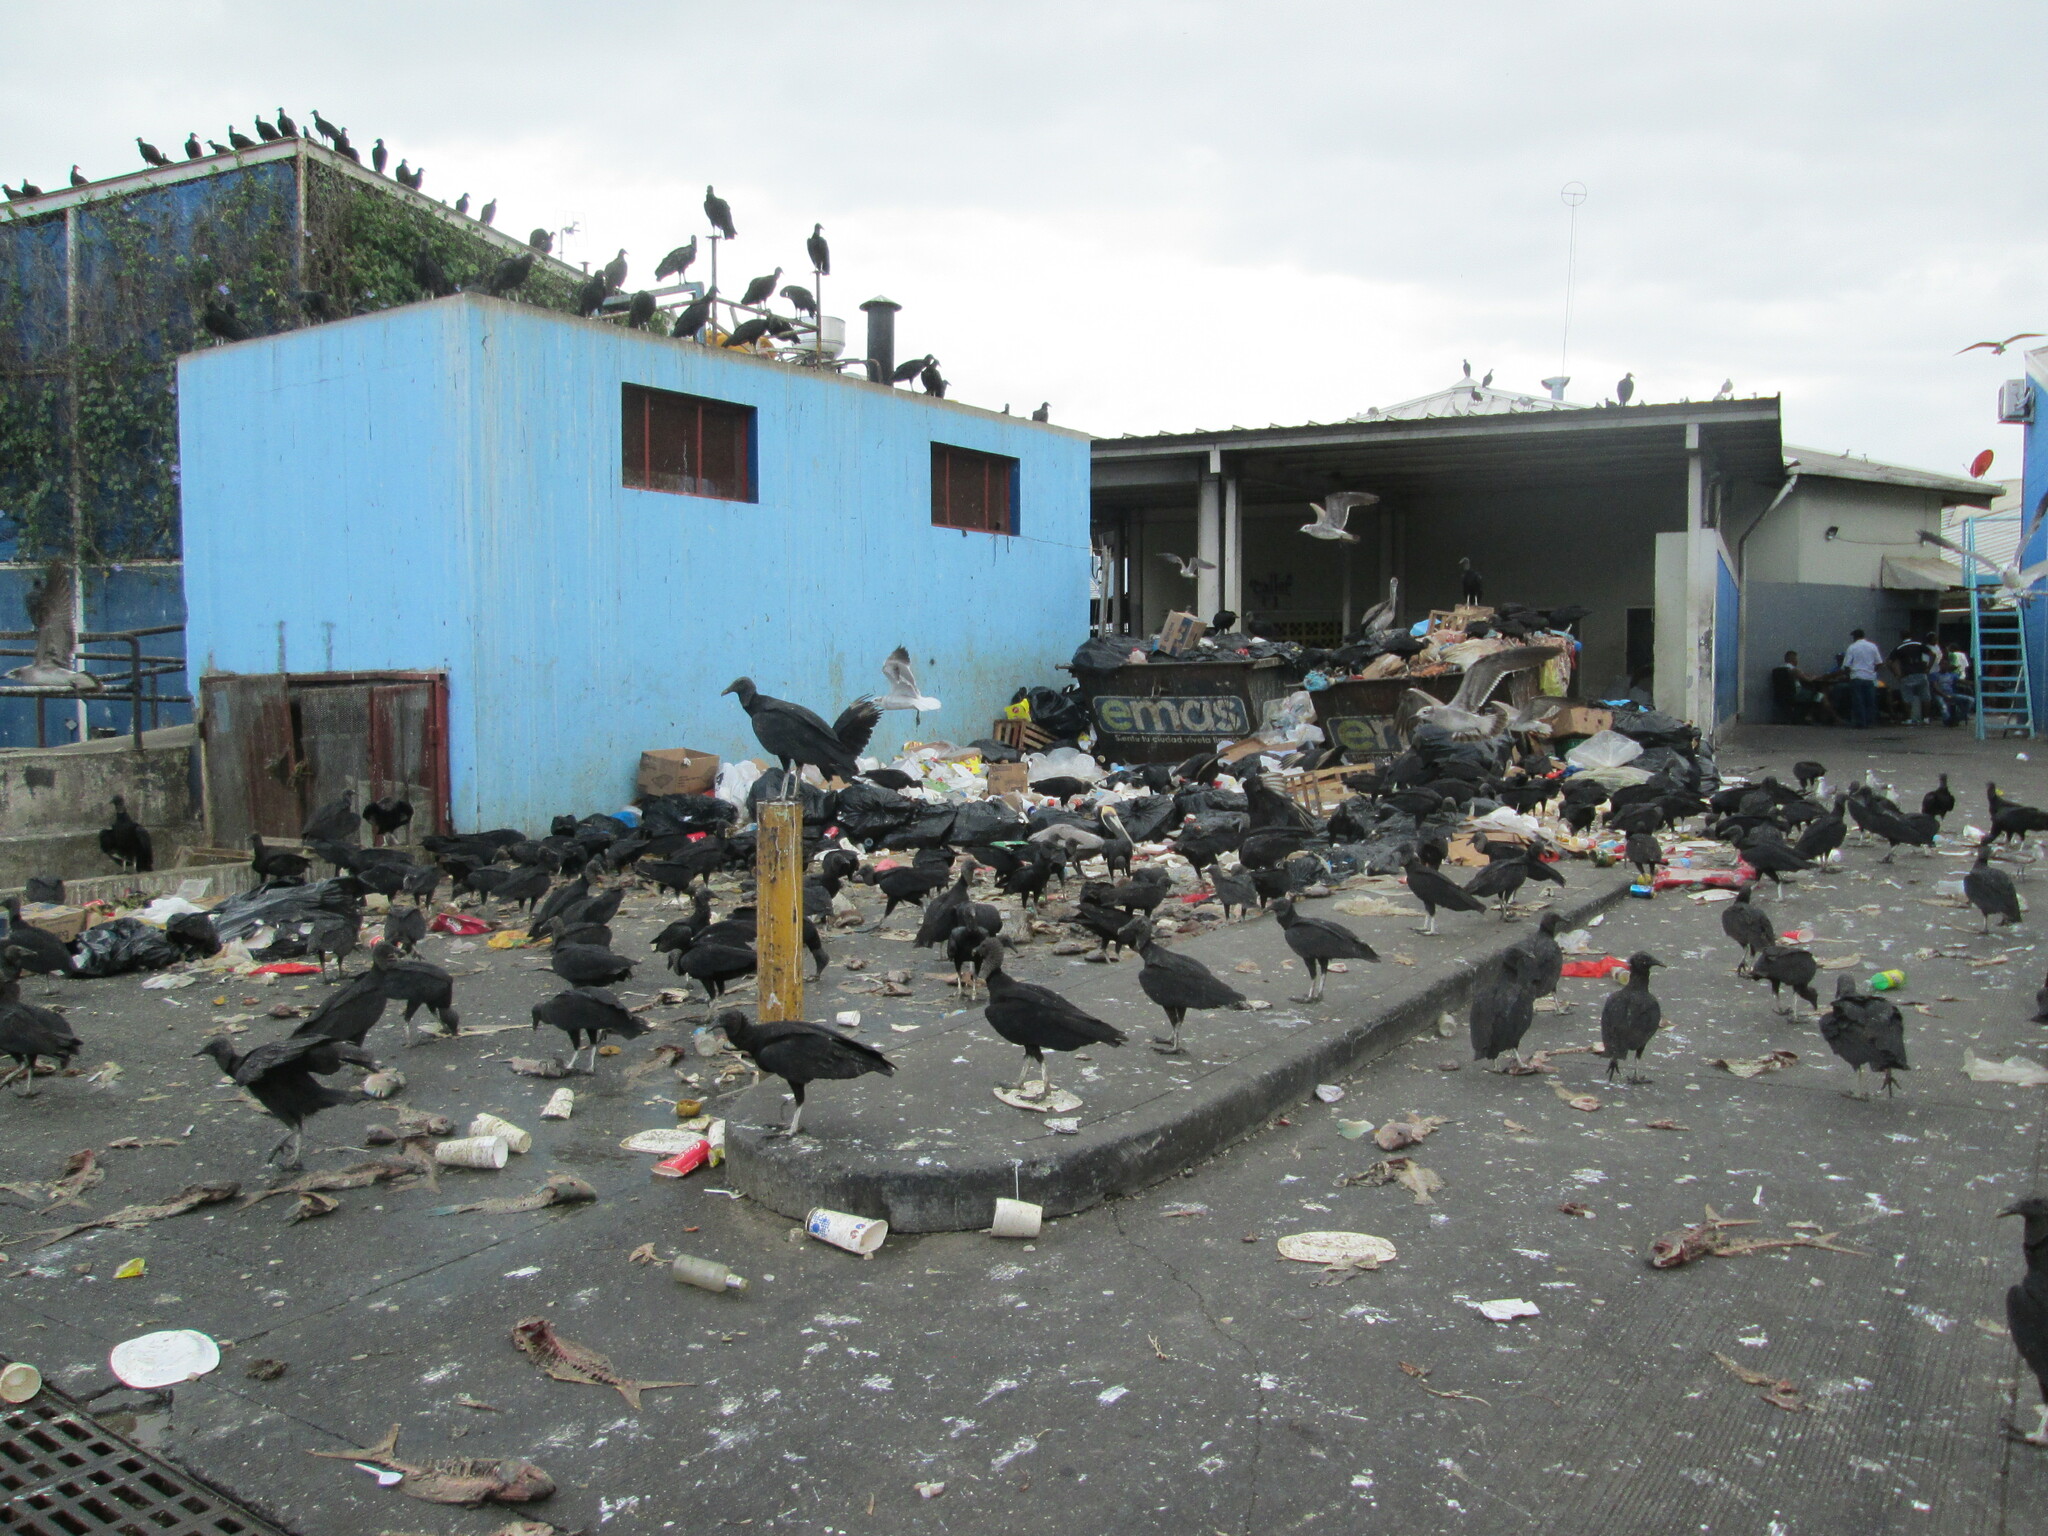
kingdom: Animalia
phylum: Chordata
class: Aves
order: Accipitriformes
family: Cathartidae
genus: Coragyps
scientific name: Coragyps atratus
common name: Black vulture
